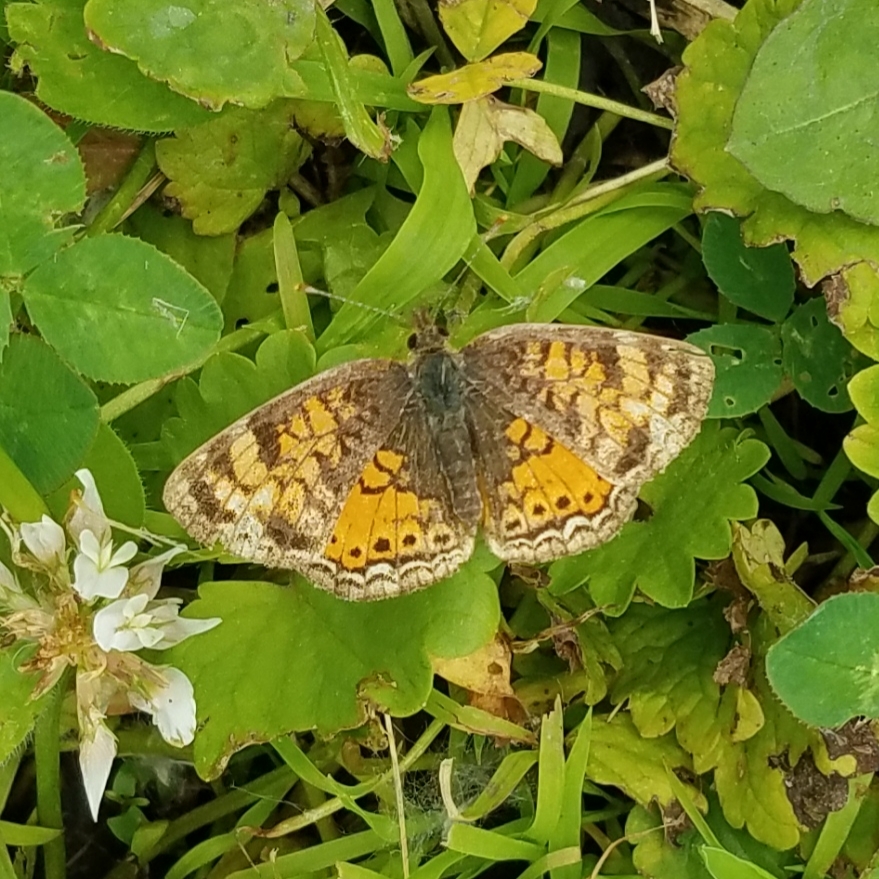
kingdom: Animalia
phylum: Arthropoda
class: Insecta
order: Lepidoptera
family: Nymphalidae
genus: Phyciodes
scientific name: Phyciodes tharos
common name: Pearl crescent
